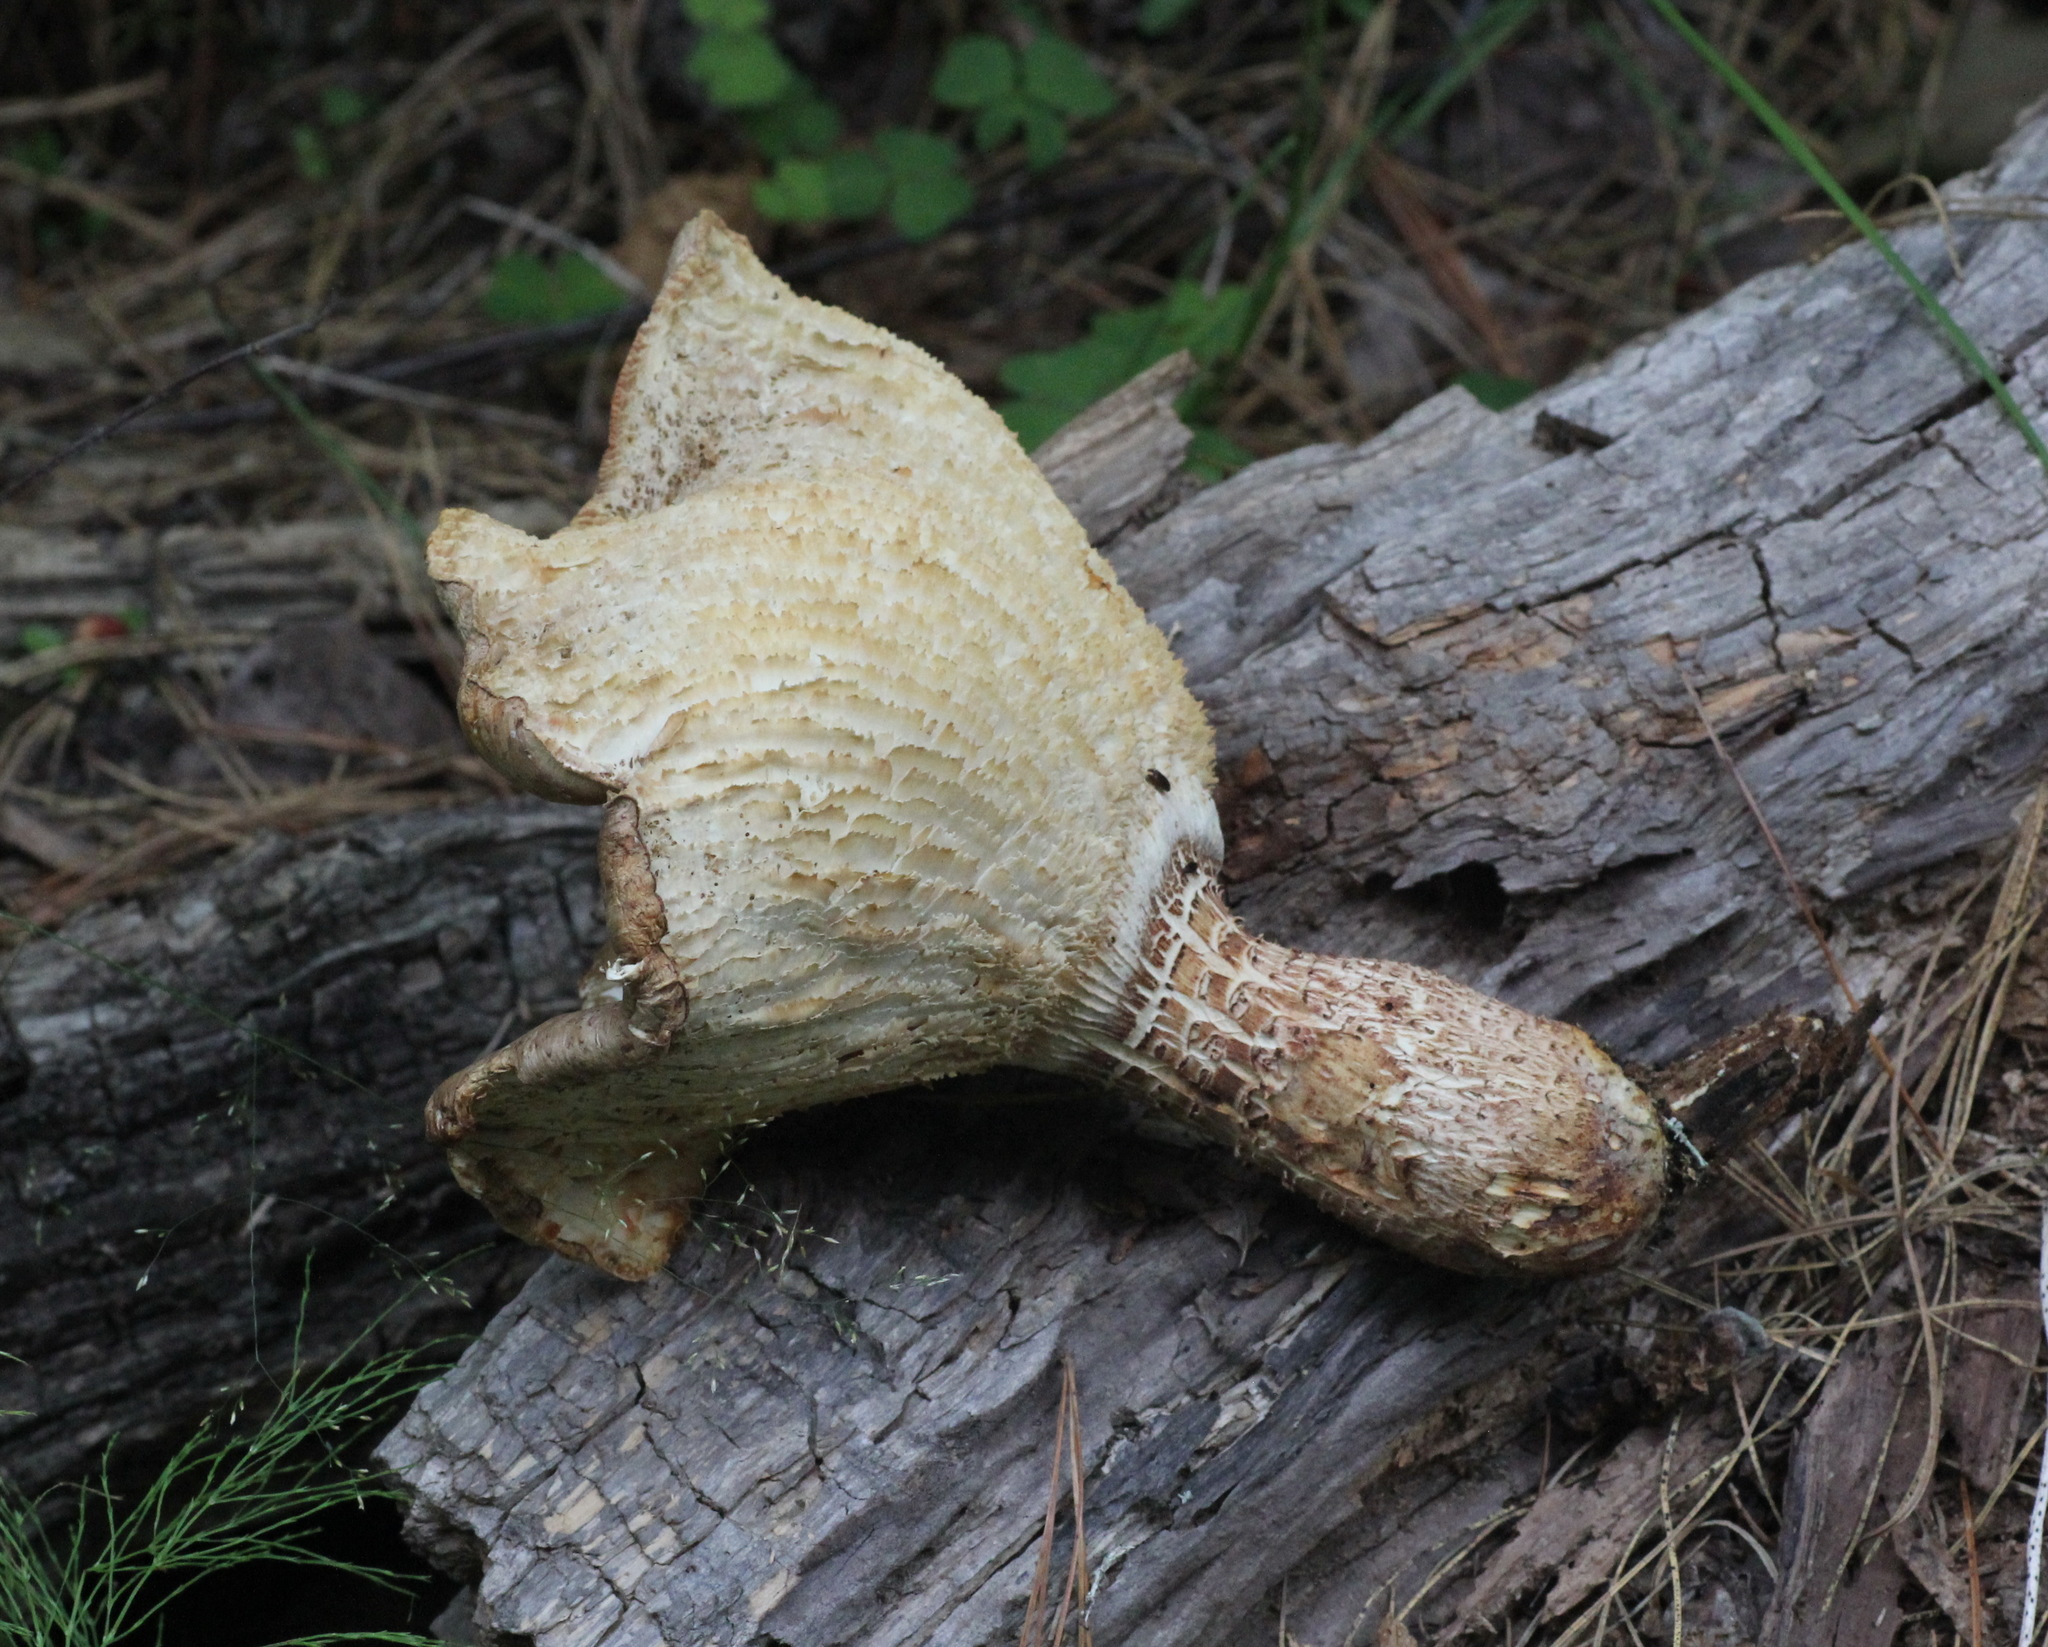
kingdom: Fungi
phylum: Basidiomycota
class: Agaricomycetes
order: Gloeophyllales
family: Gloeophyllaceae
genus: Neolentinus
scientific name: Neolentinus lepideus
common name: Scaly sawgill
